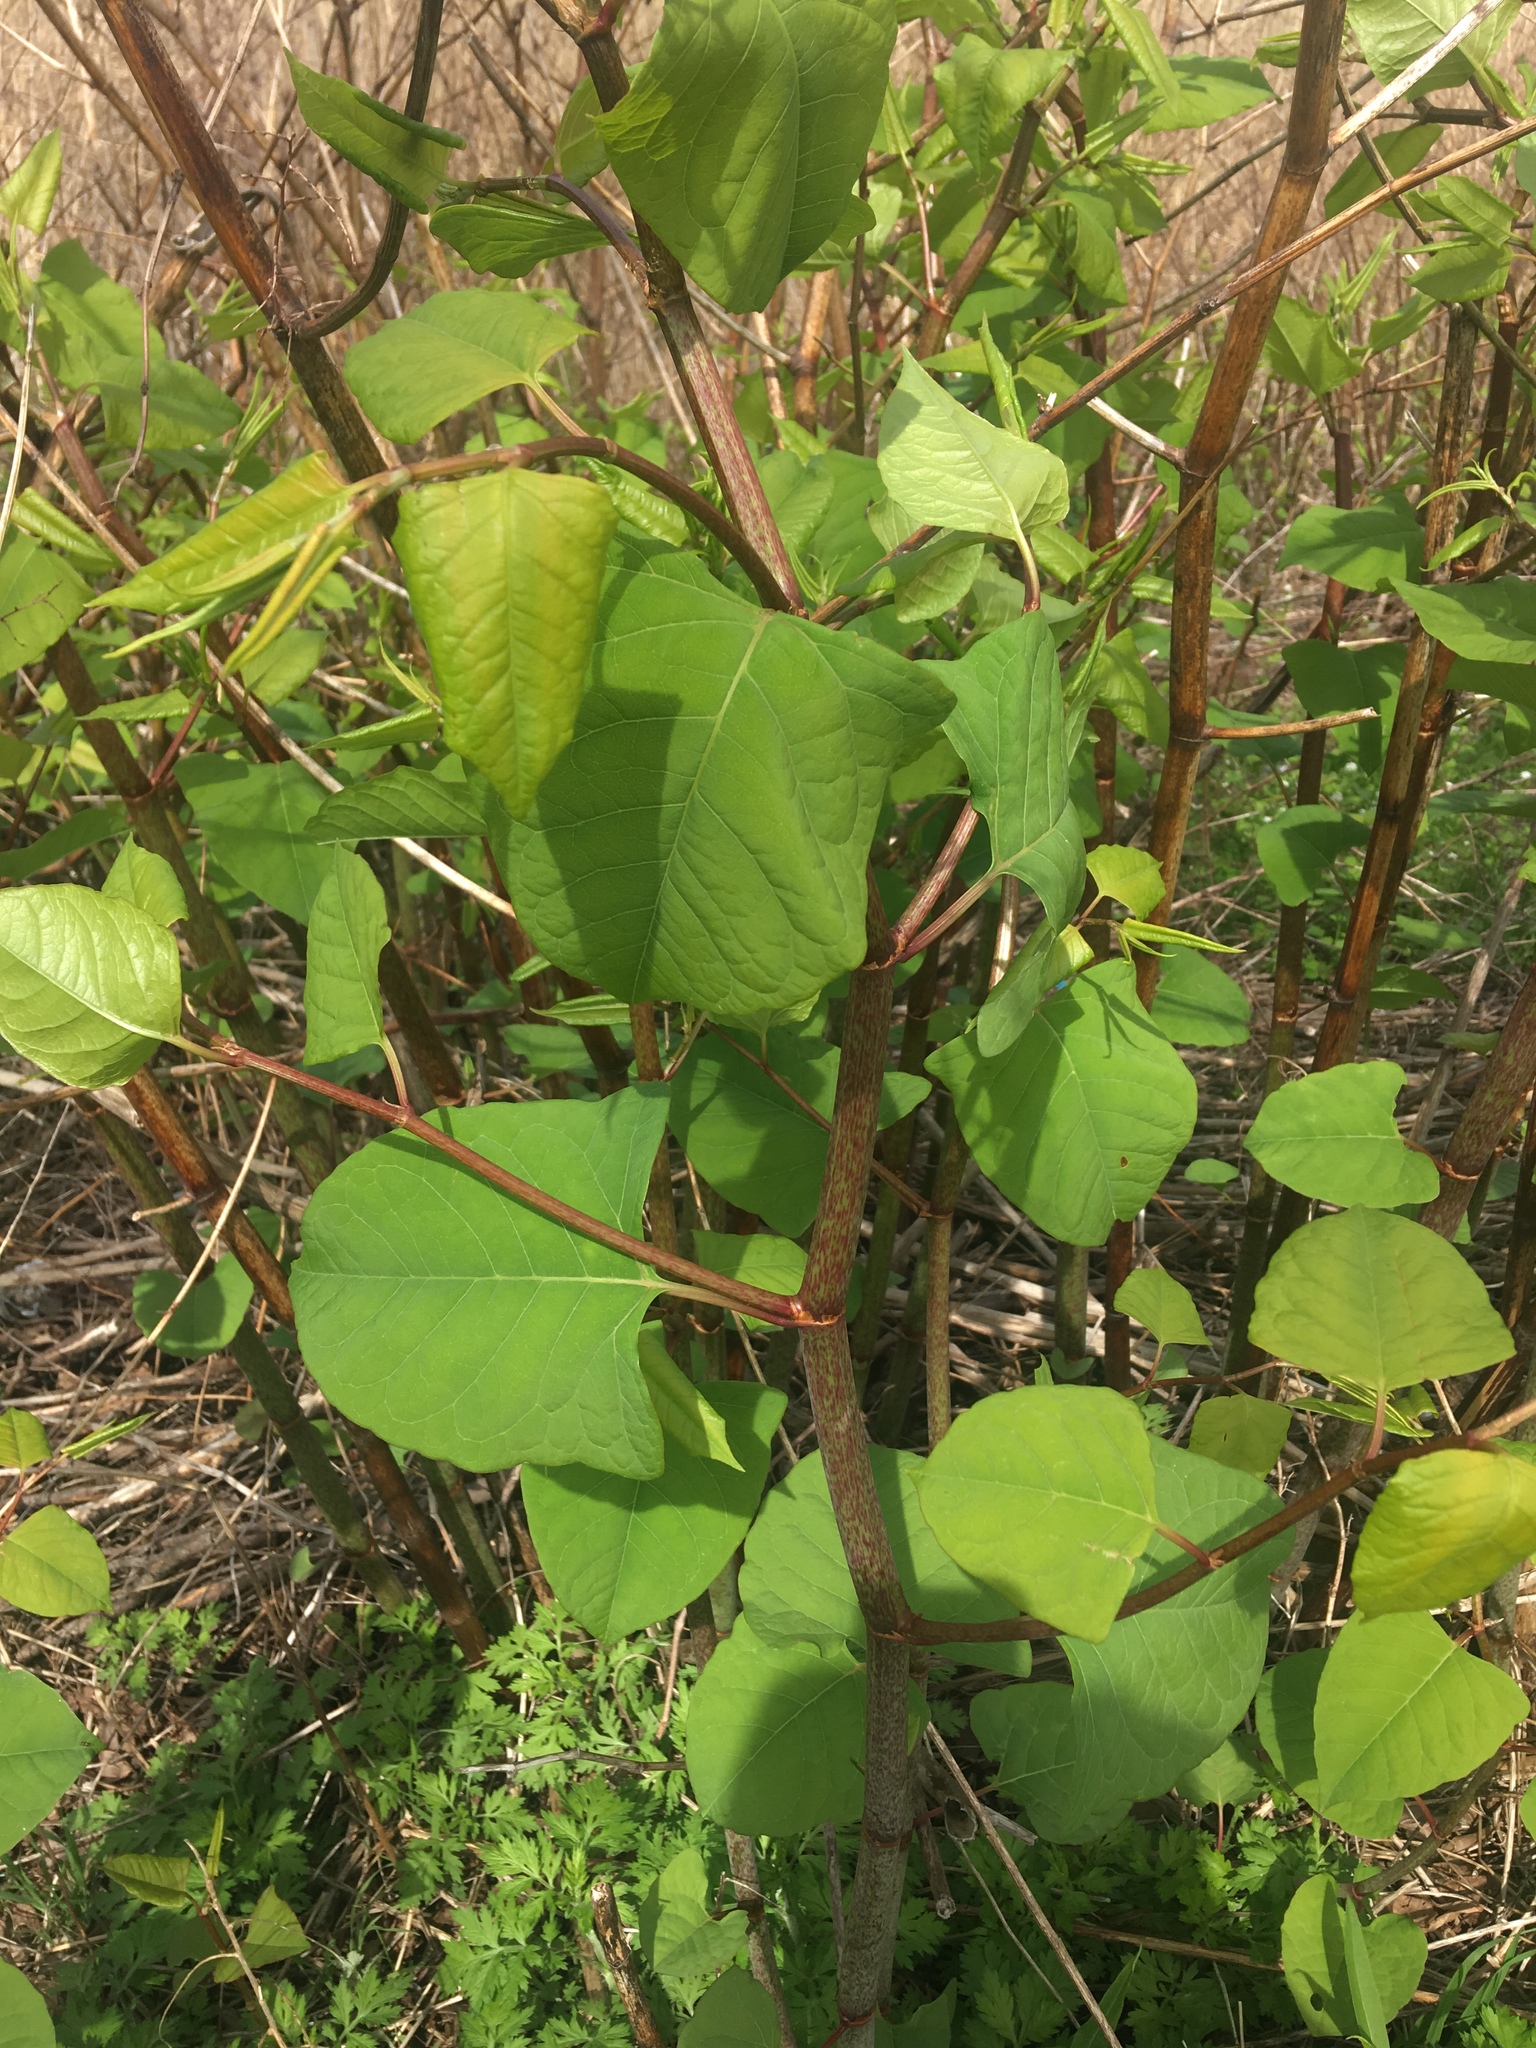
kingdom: Plantae
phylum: Tracheophyta
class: Magnoliopsida
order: Caryophyllales
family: Polygonaceae
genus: Reynoutria
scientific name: Reynoutria japonica
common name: Japanese knotweed
